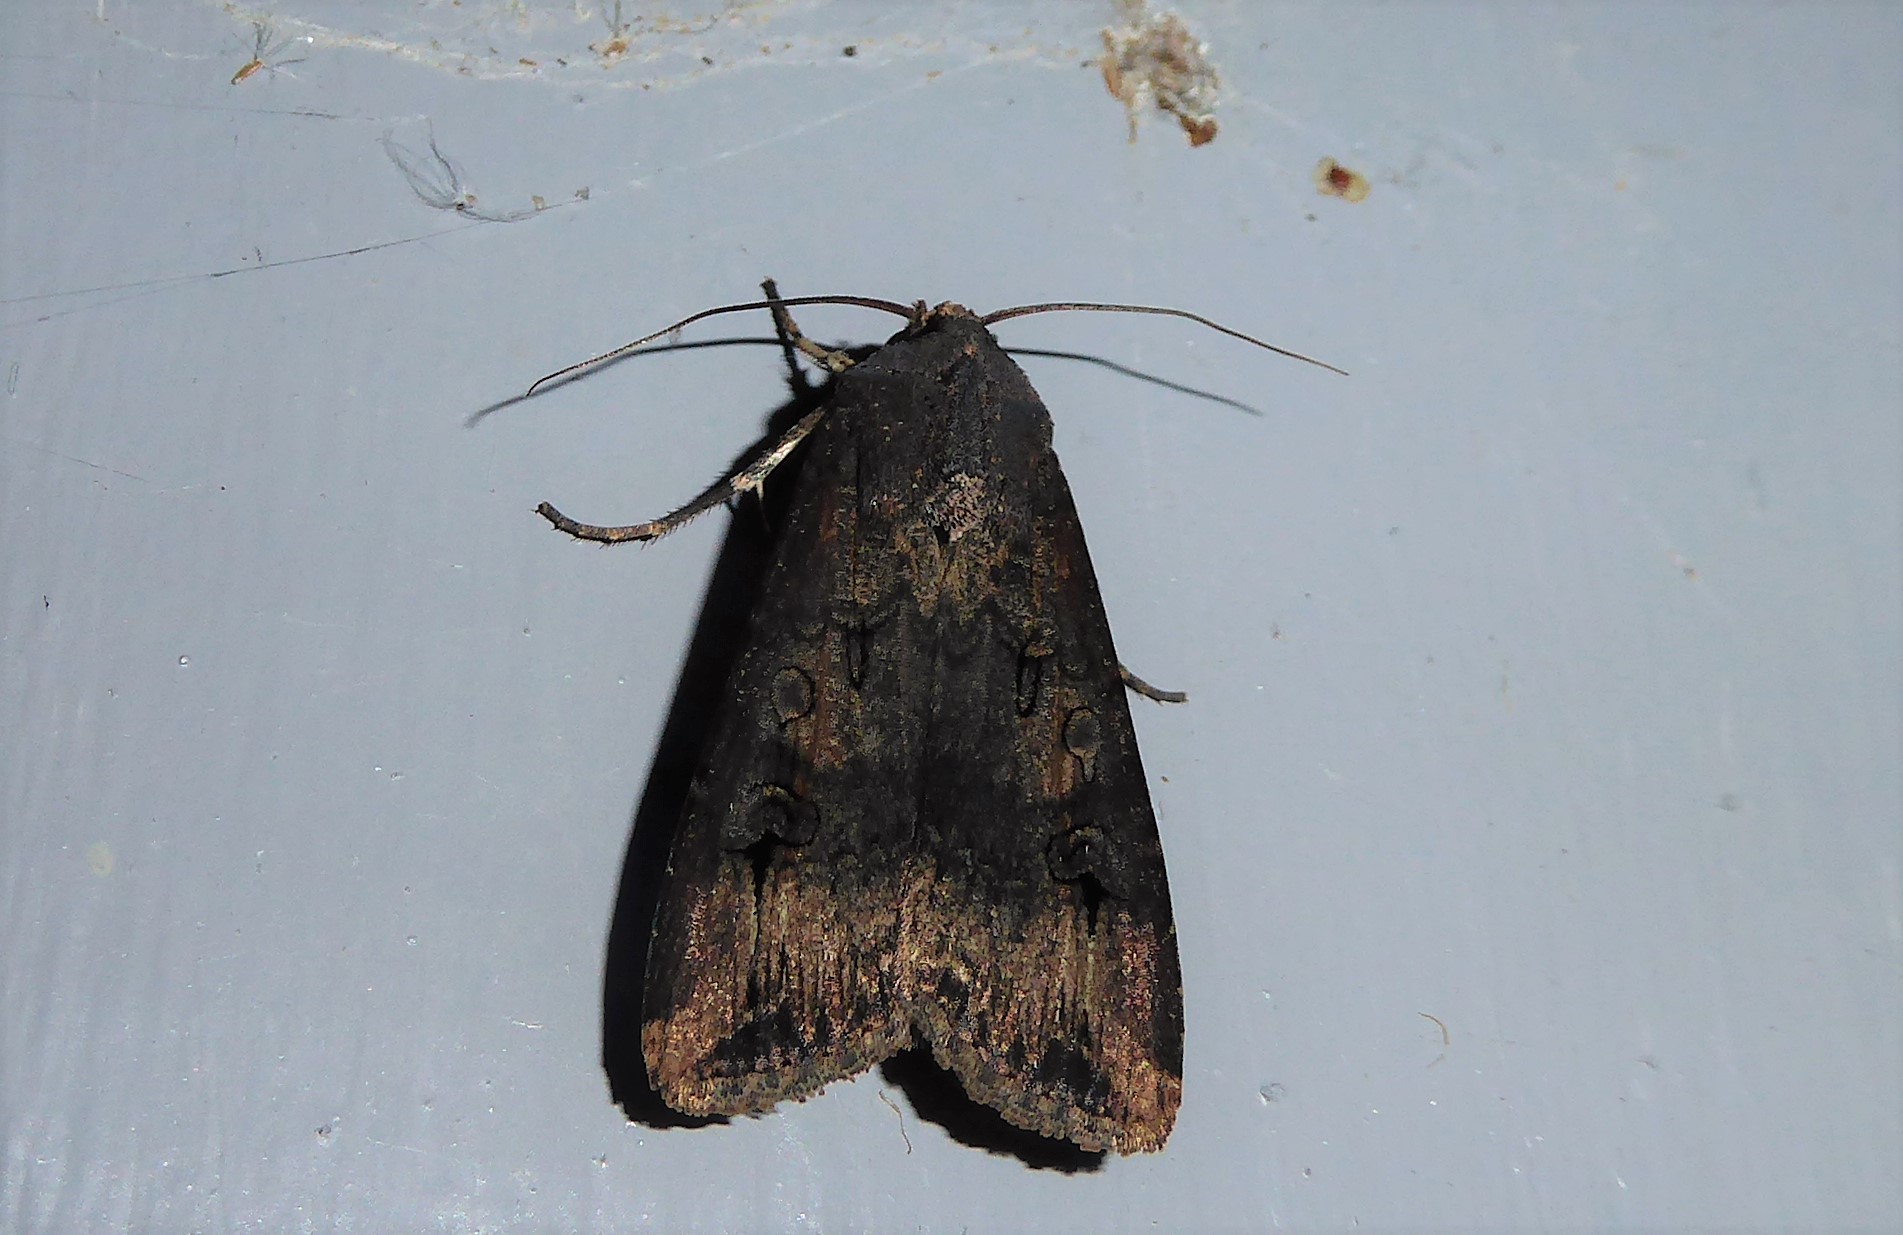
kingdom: Animalia
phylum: Arthropoda
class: Insecta
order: Lepidoptera
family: Noctuidae
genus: Agrotis
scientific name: Agrotis ipsilon
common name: Dark sword-grass
